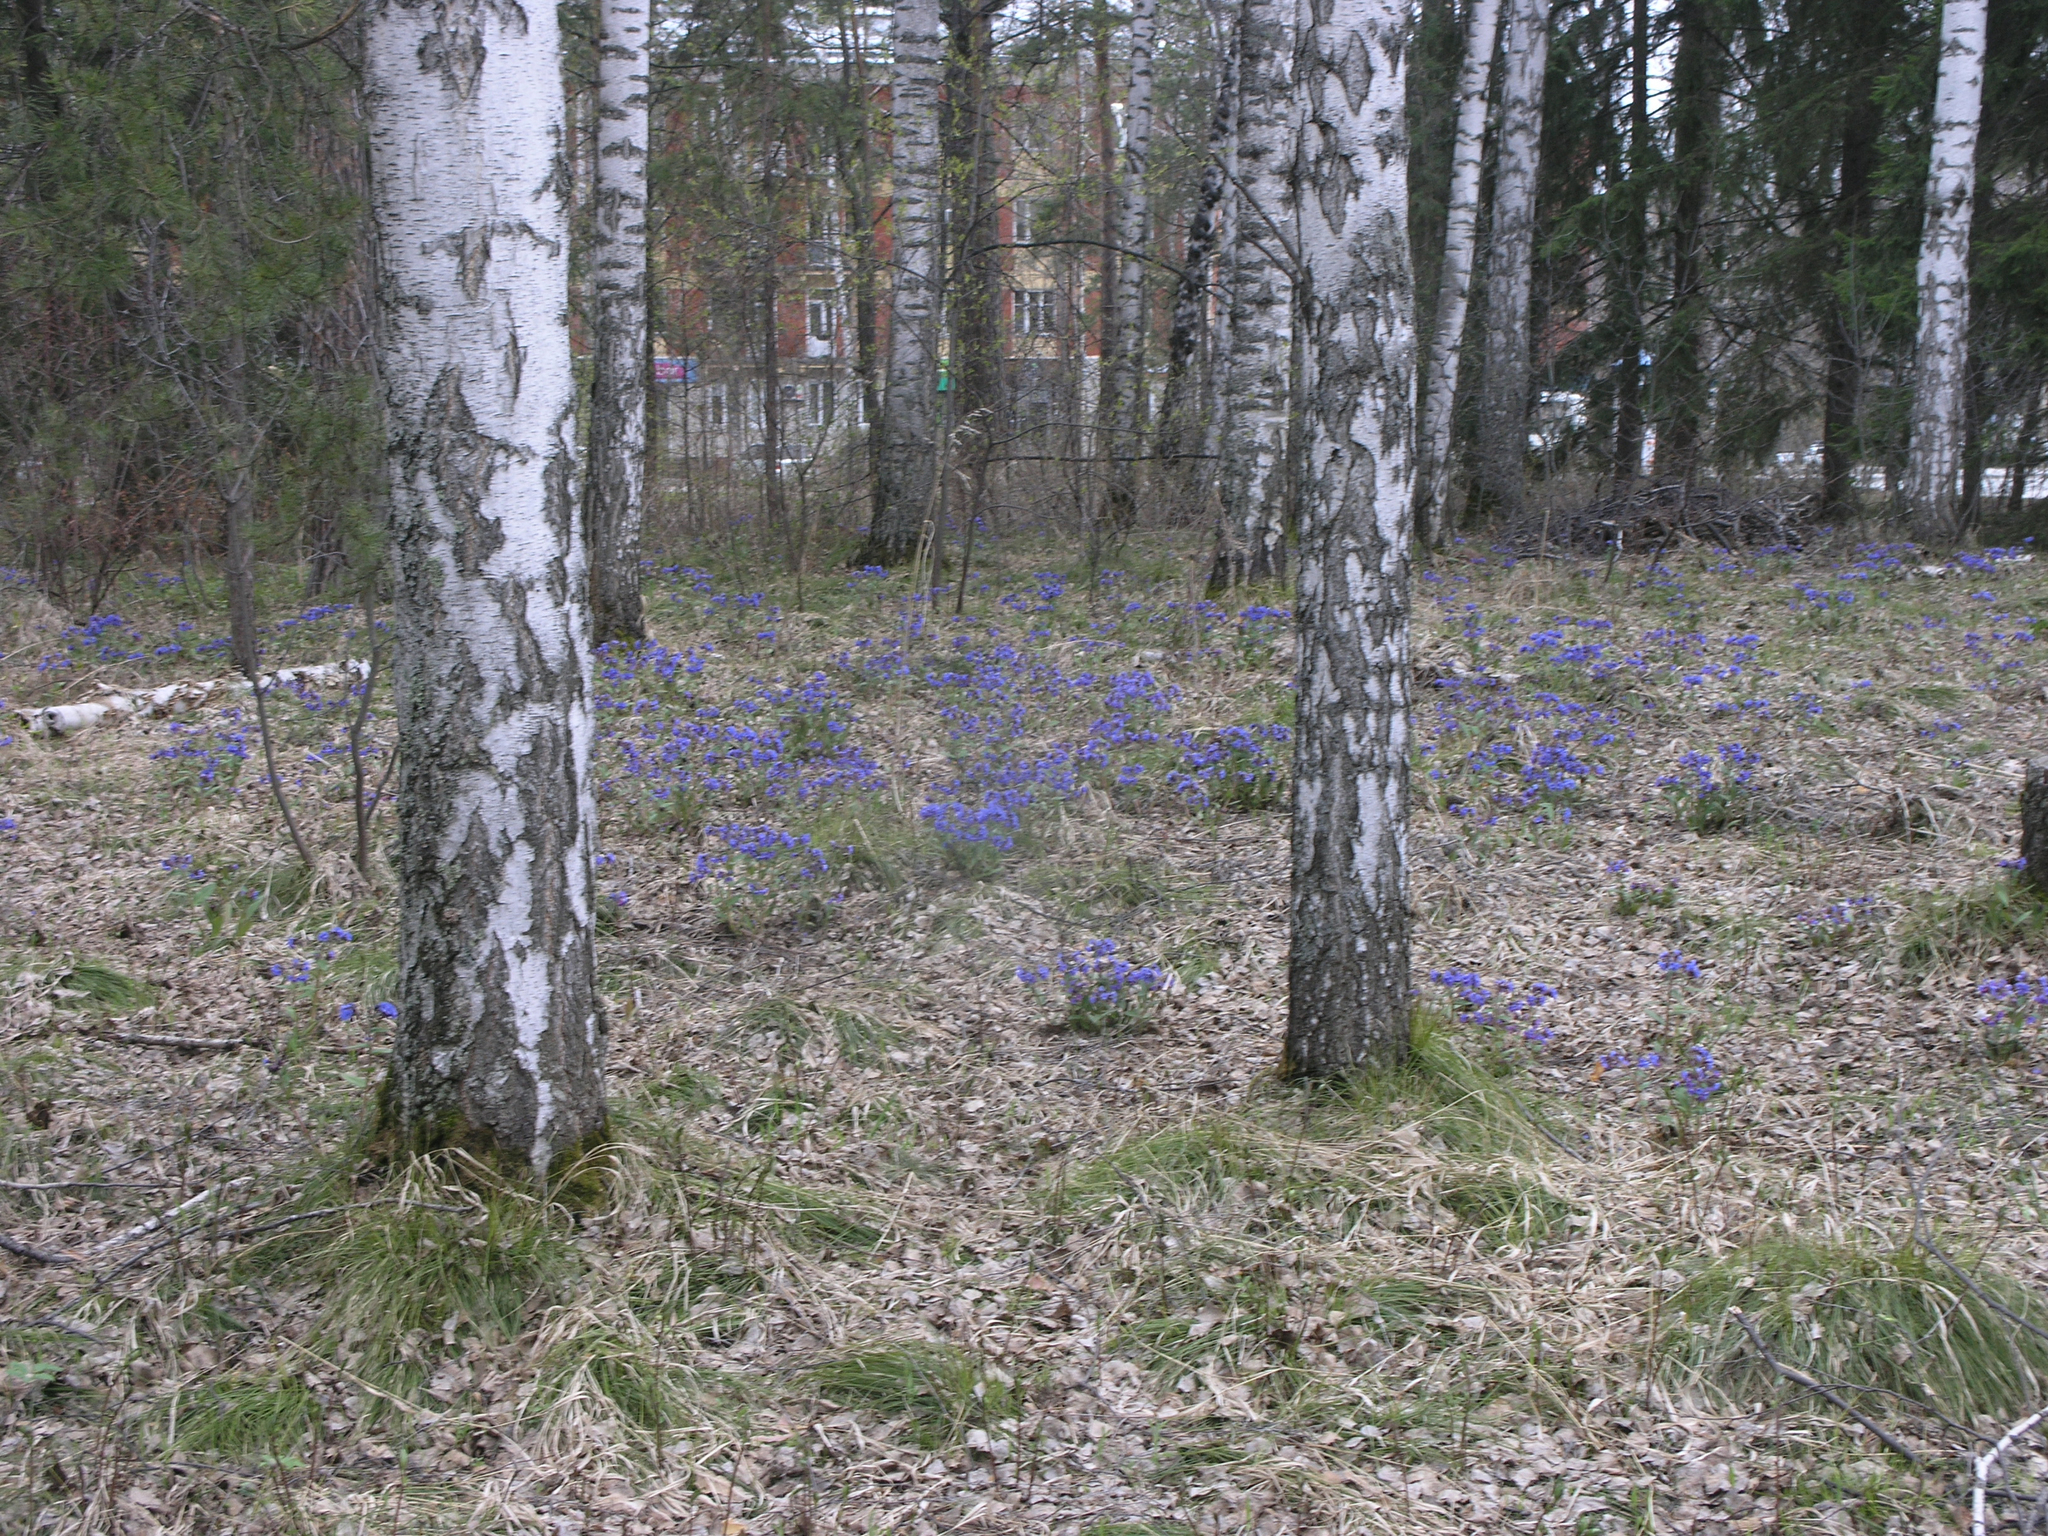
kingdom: Plantae
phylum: Tracheophyta
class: Magnoliopsida
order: Boraginales
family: Boraginaceae
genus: Pulmonaria
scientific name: Pulmonaria mollis
